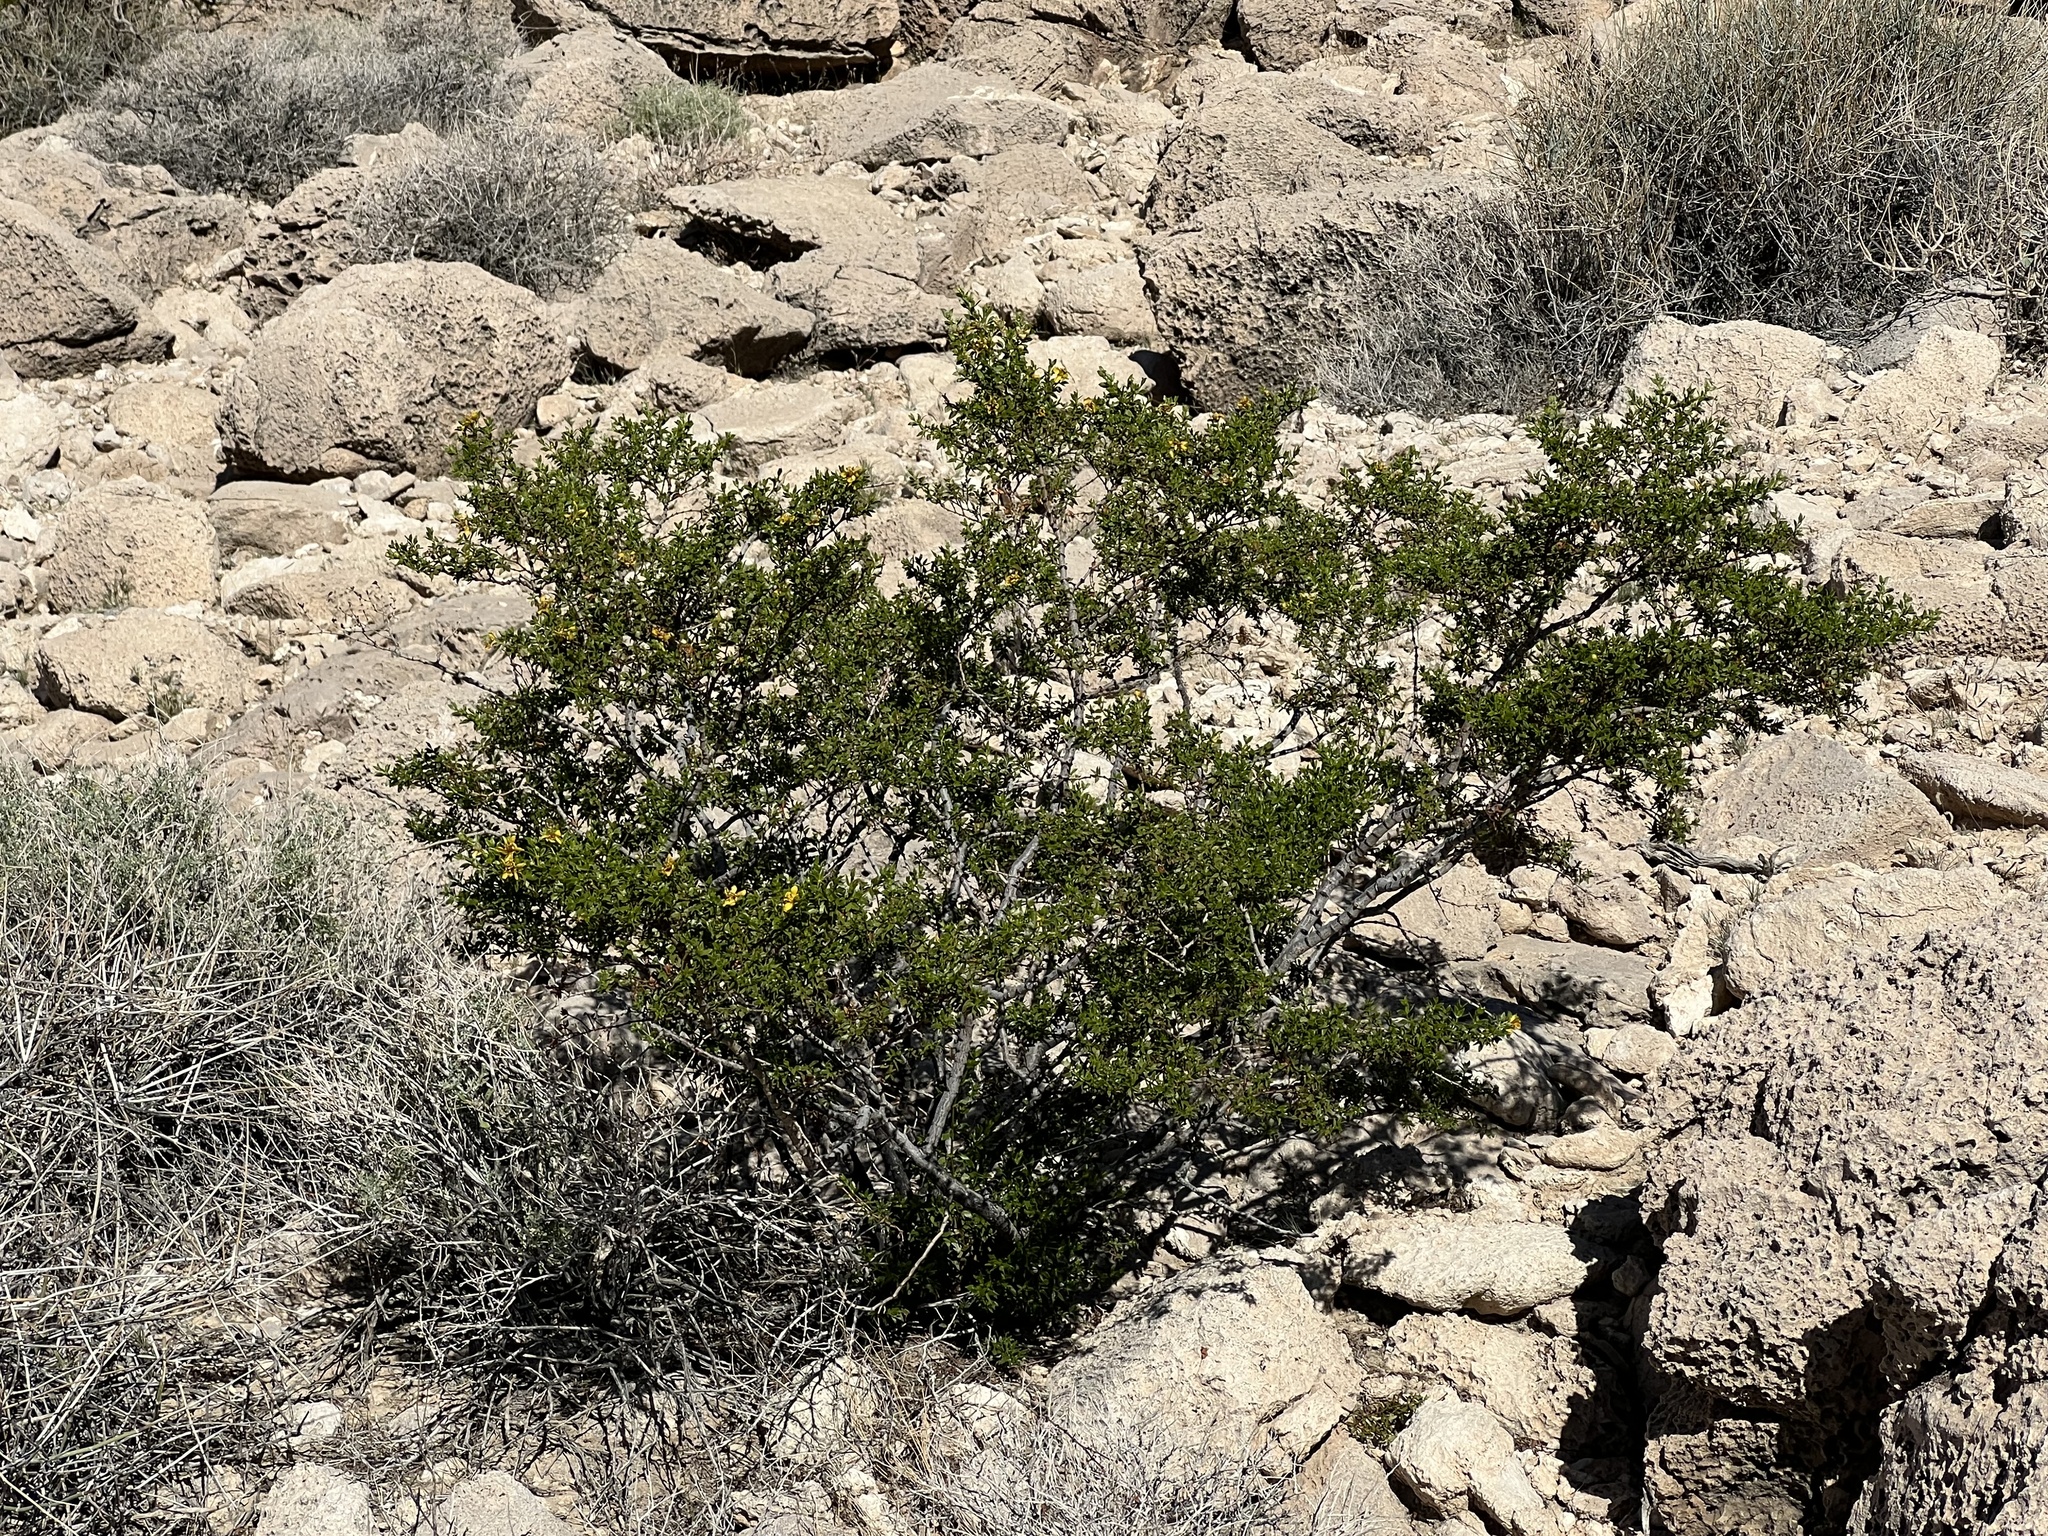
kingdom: Plantae
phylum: Tracheophyta
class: Magnoliopsida
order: Zygophyllales
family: Zygophyllaceae
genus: Larrea
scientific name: Larrea tridentata
